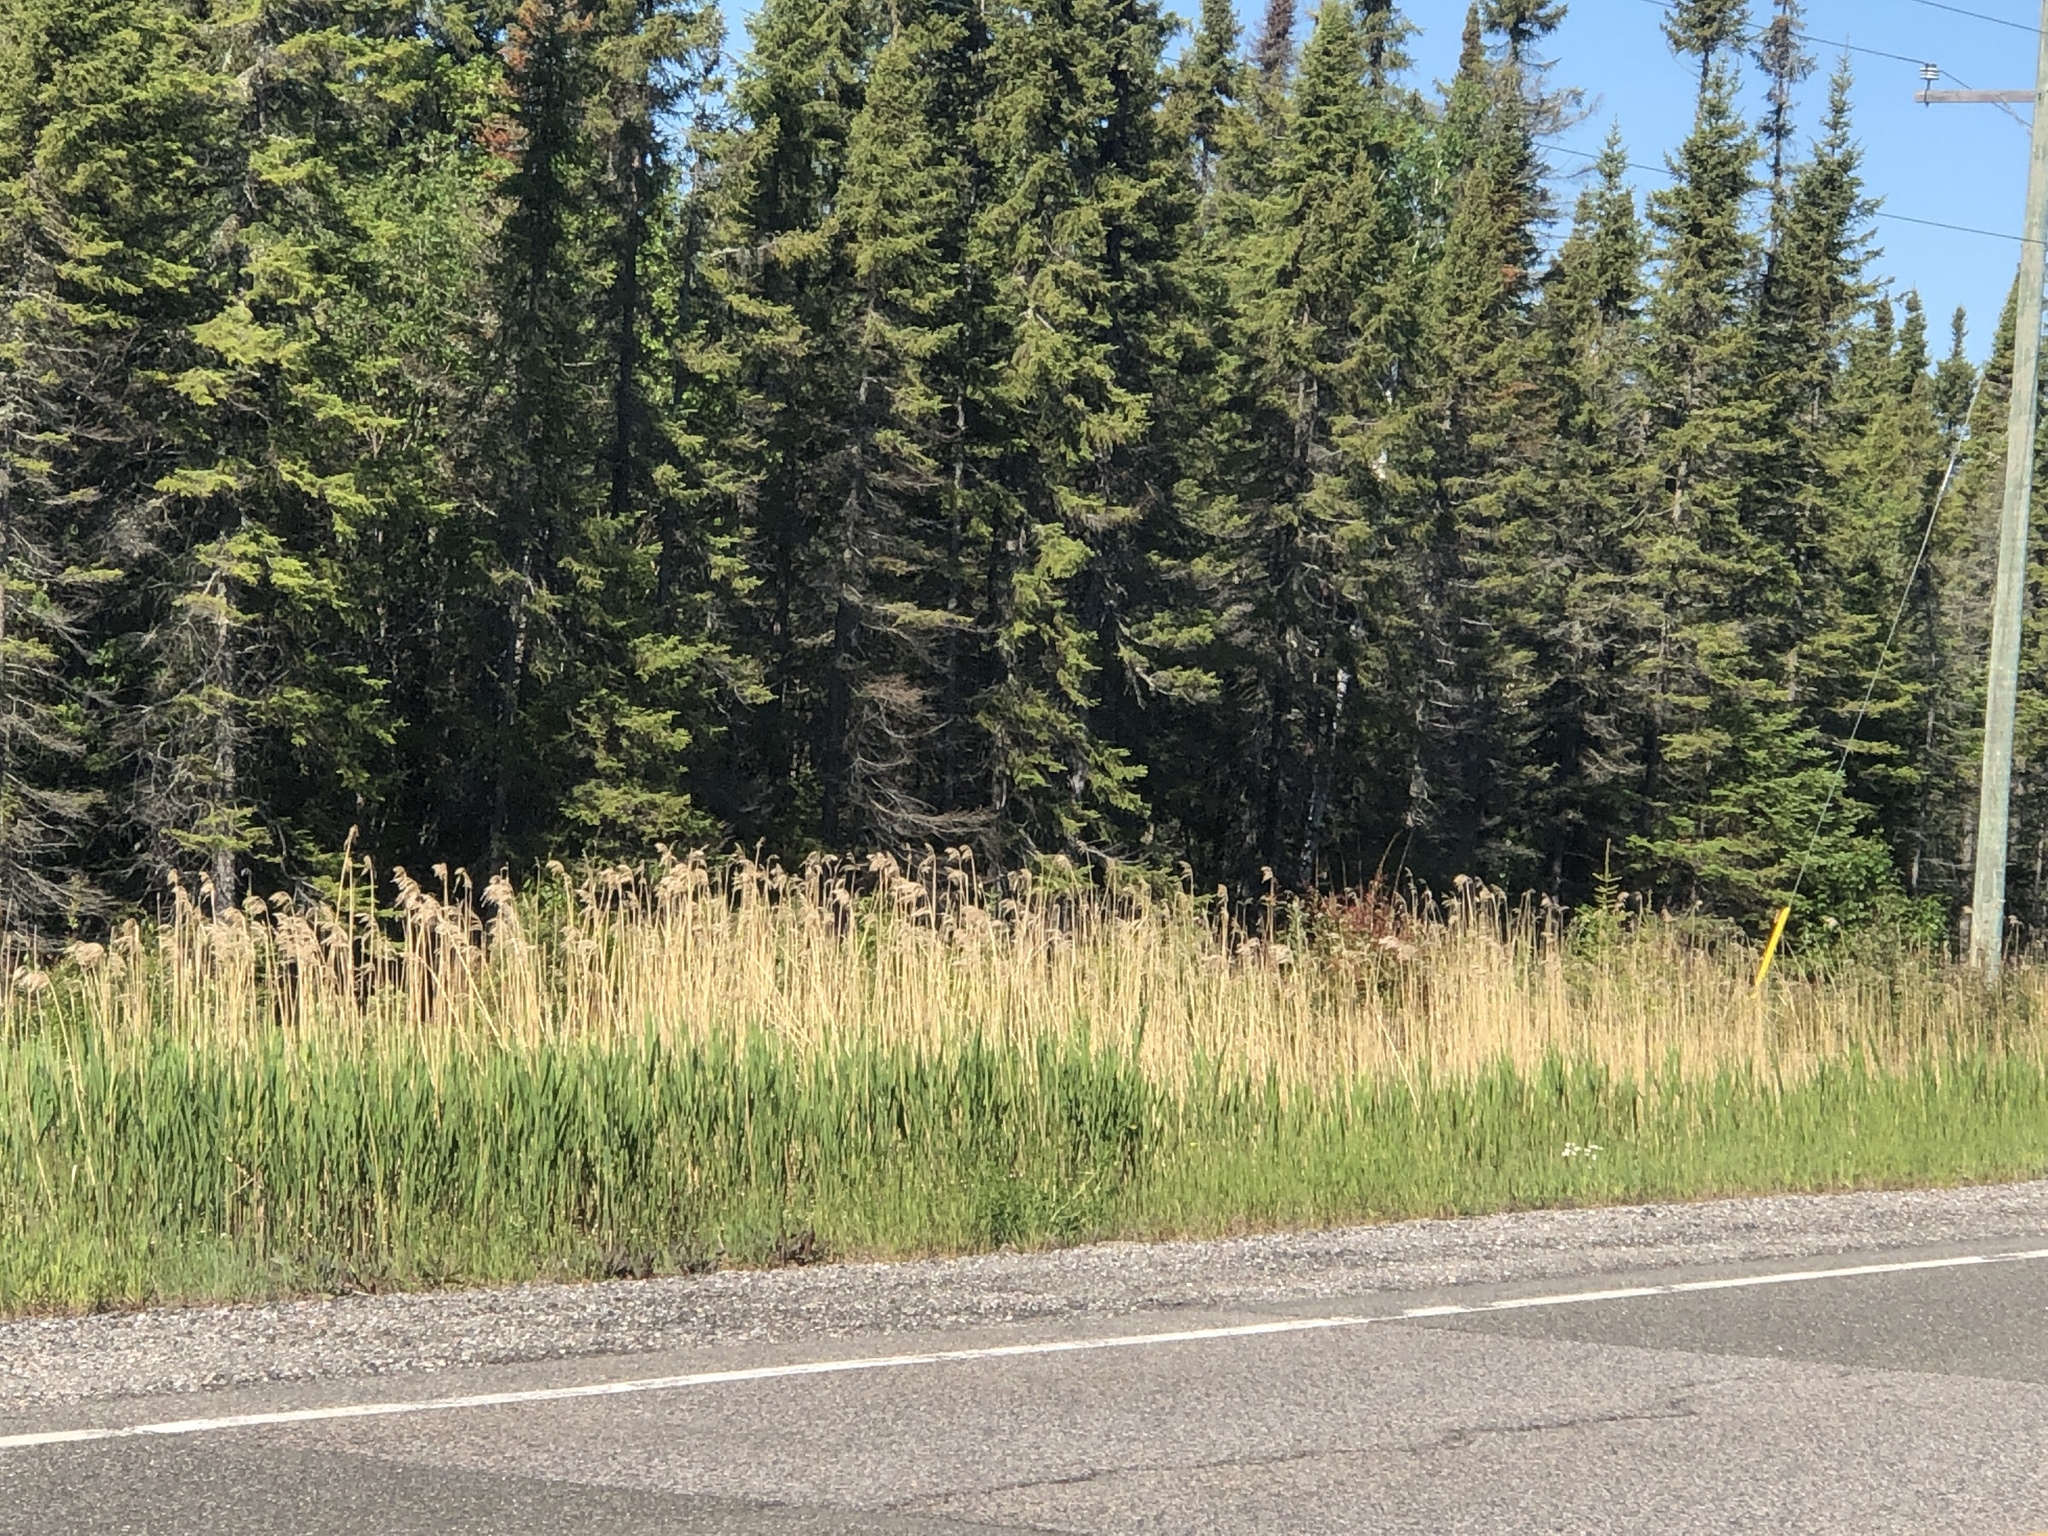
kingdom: Plantae
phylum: Tracheophyta
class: Liliopsida
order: Poales
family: Poaceae
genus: Phragmites
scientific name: Phragmites australis
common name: Common reed
